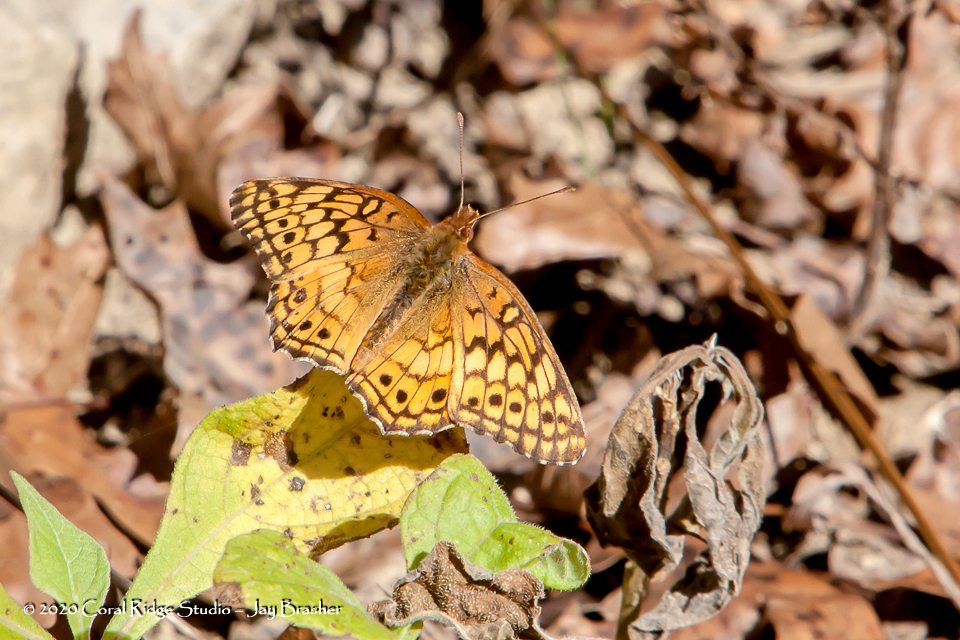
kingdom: Animalia
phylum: Arthropoda
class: Insecta
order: Lepidoptera
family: Nymphalidae
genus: Euptoieta
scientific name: Euptoieta claudia
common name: Variegated fritillary
